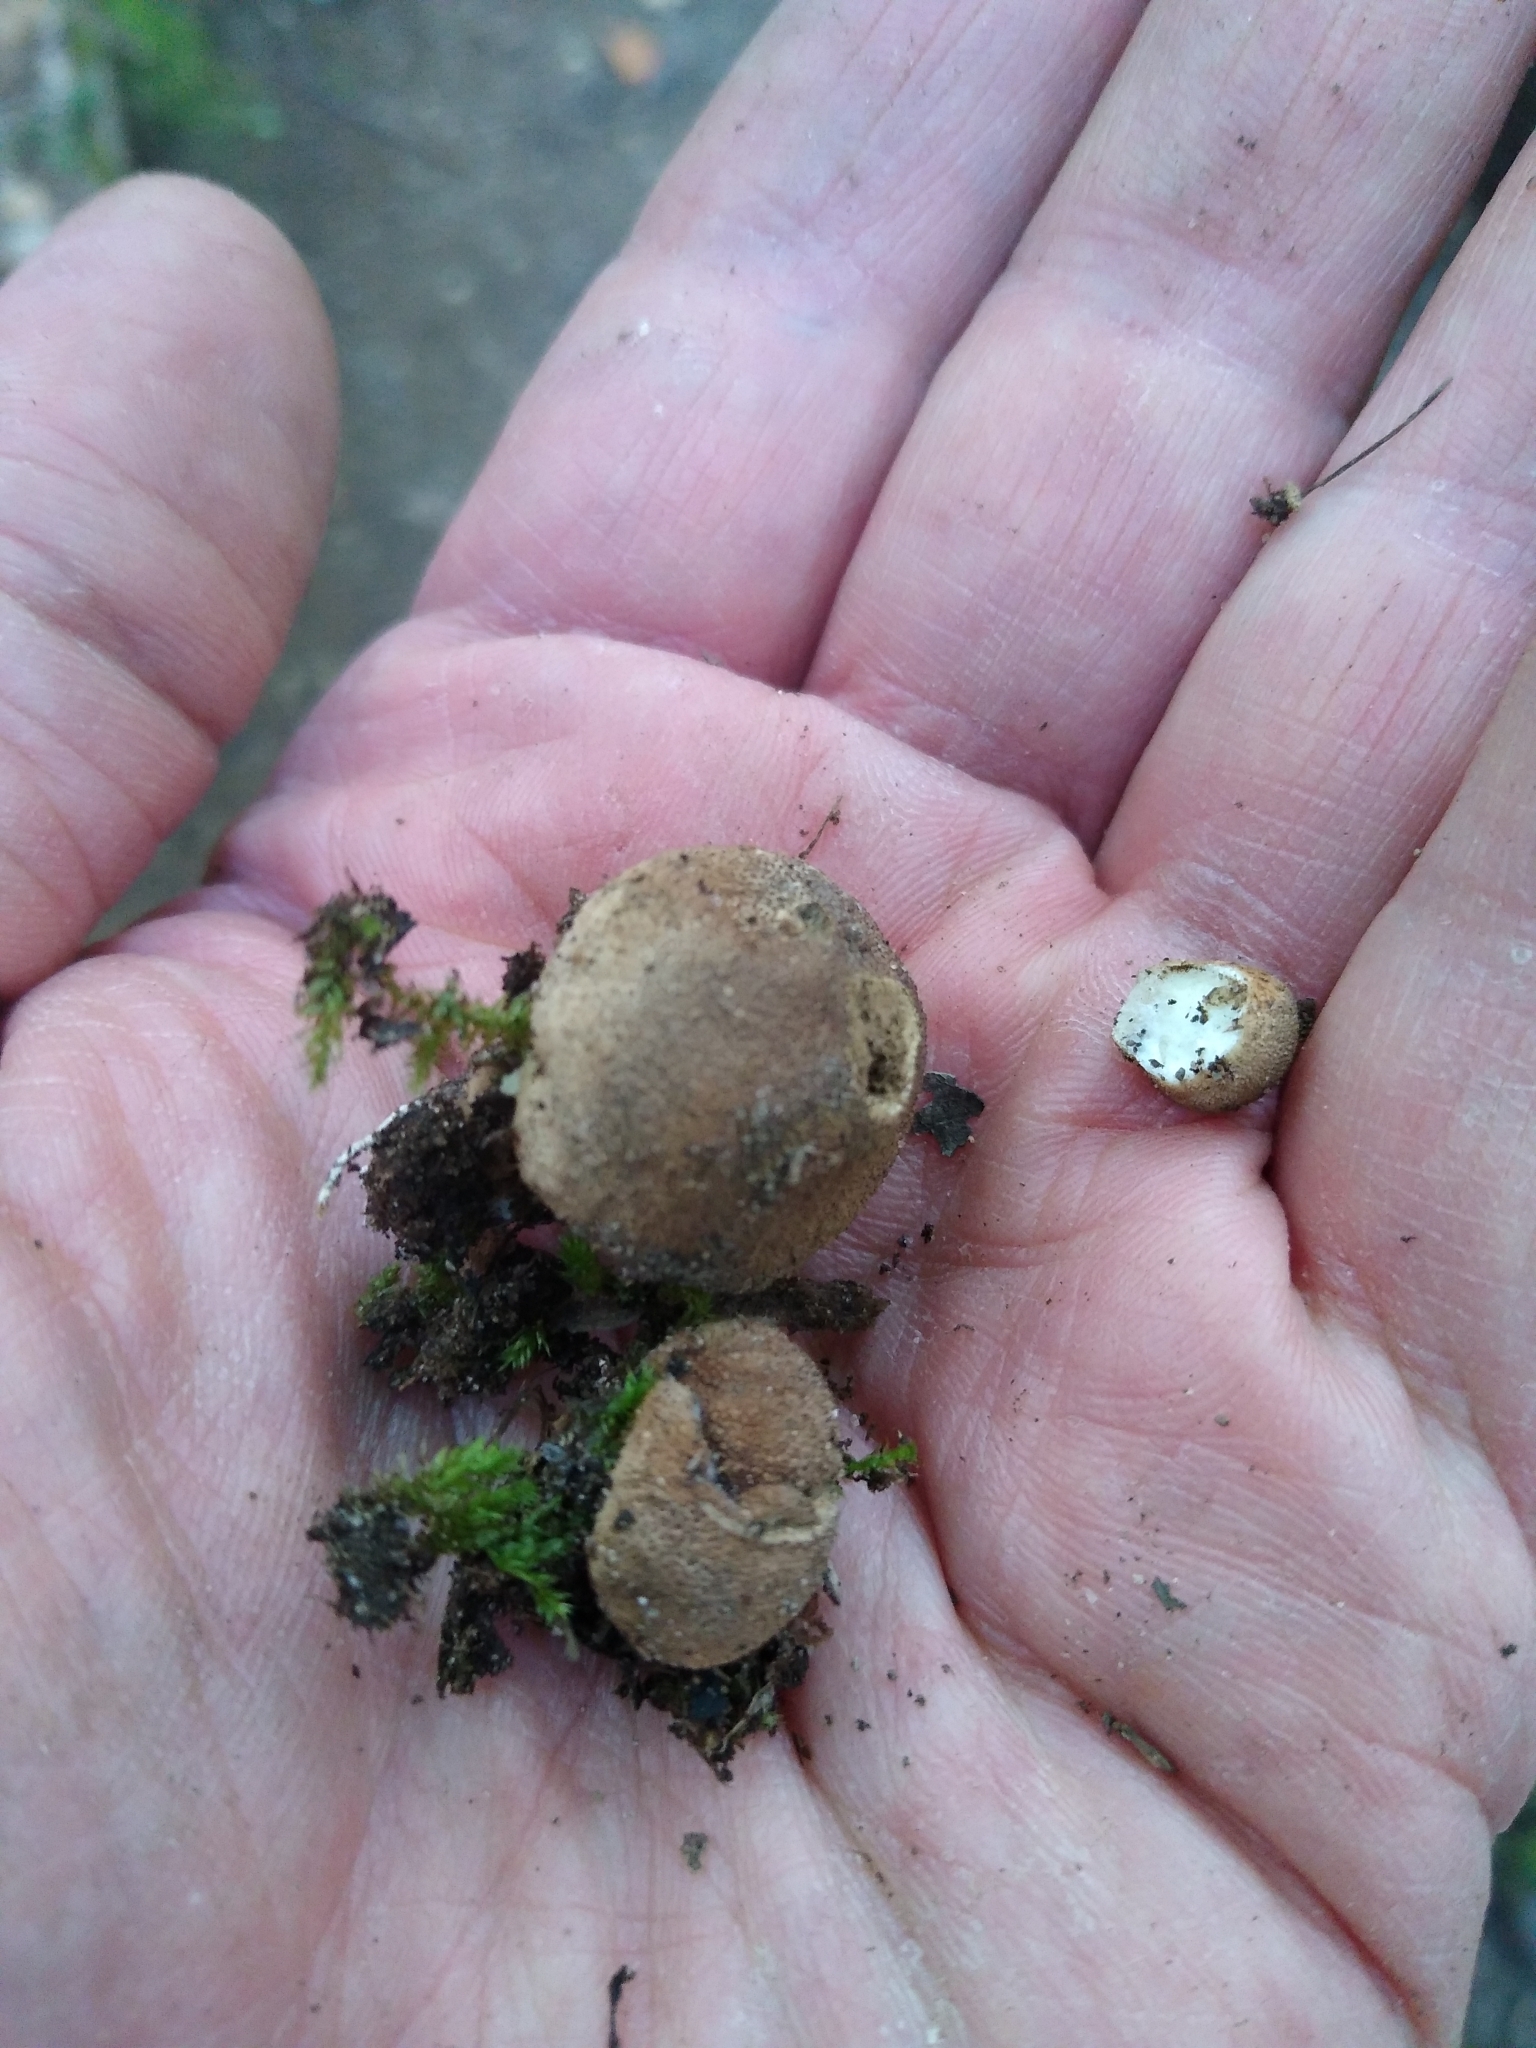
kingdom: Fungi
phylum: Basidiomycota
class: Agaricomycetes
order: Agaricales
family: Lycoperdaceae
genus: Lycoperdon
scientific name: Lycoperdon subincarnatum
